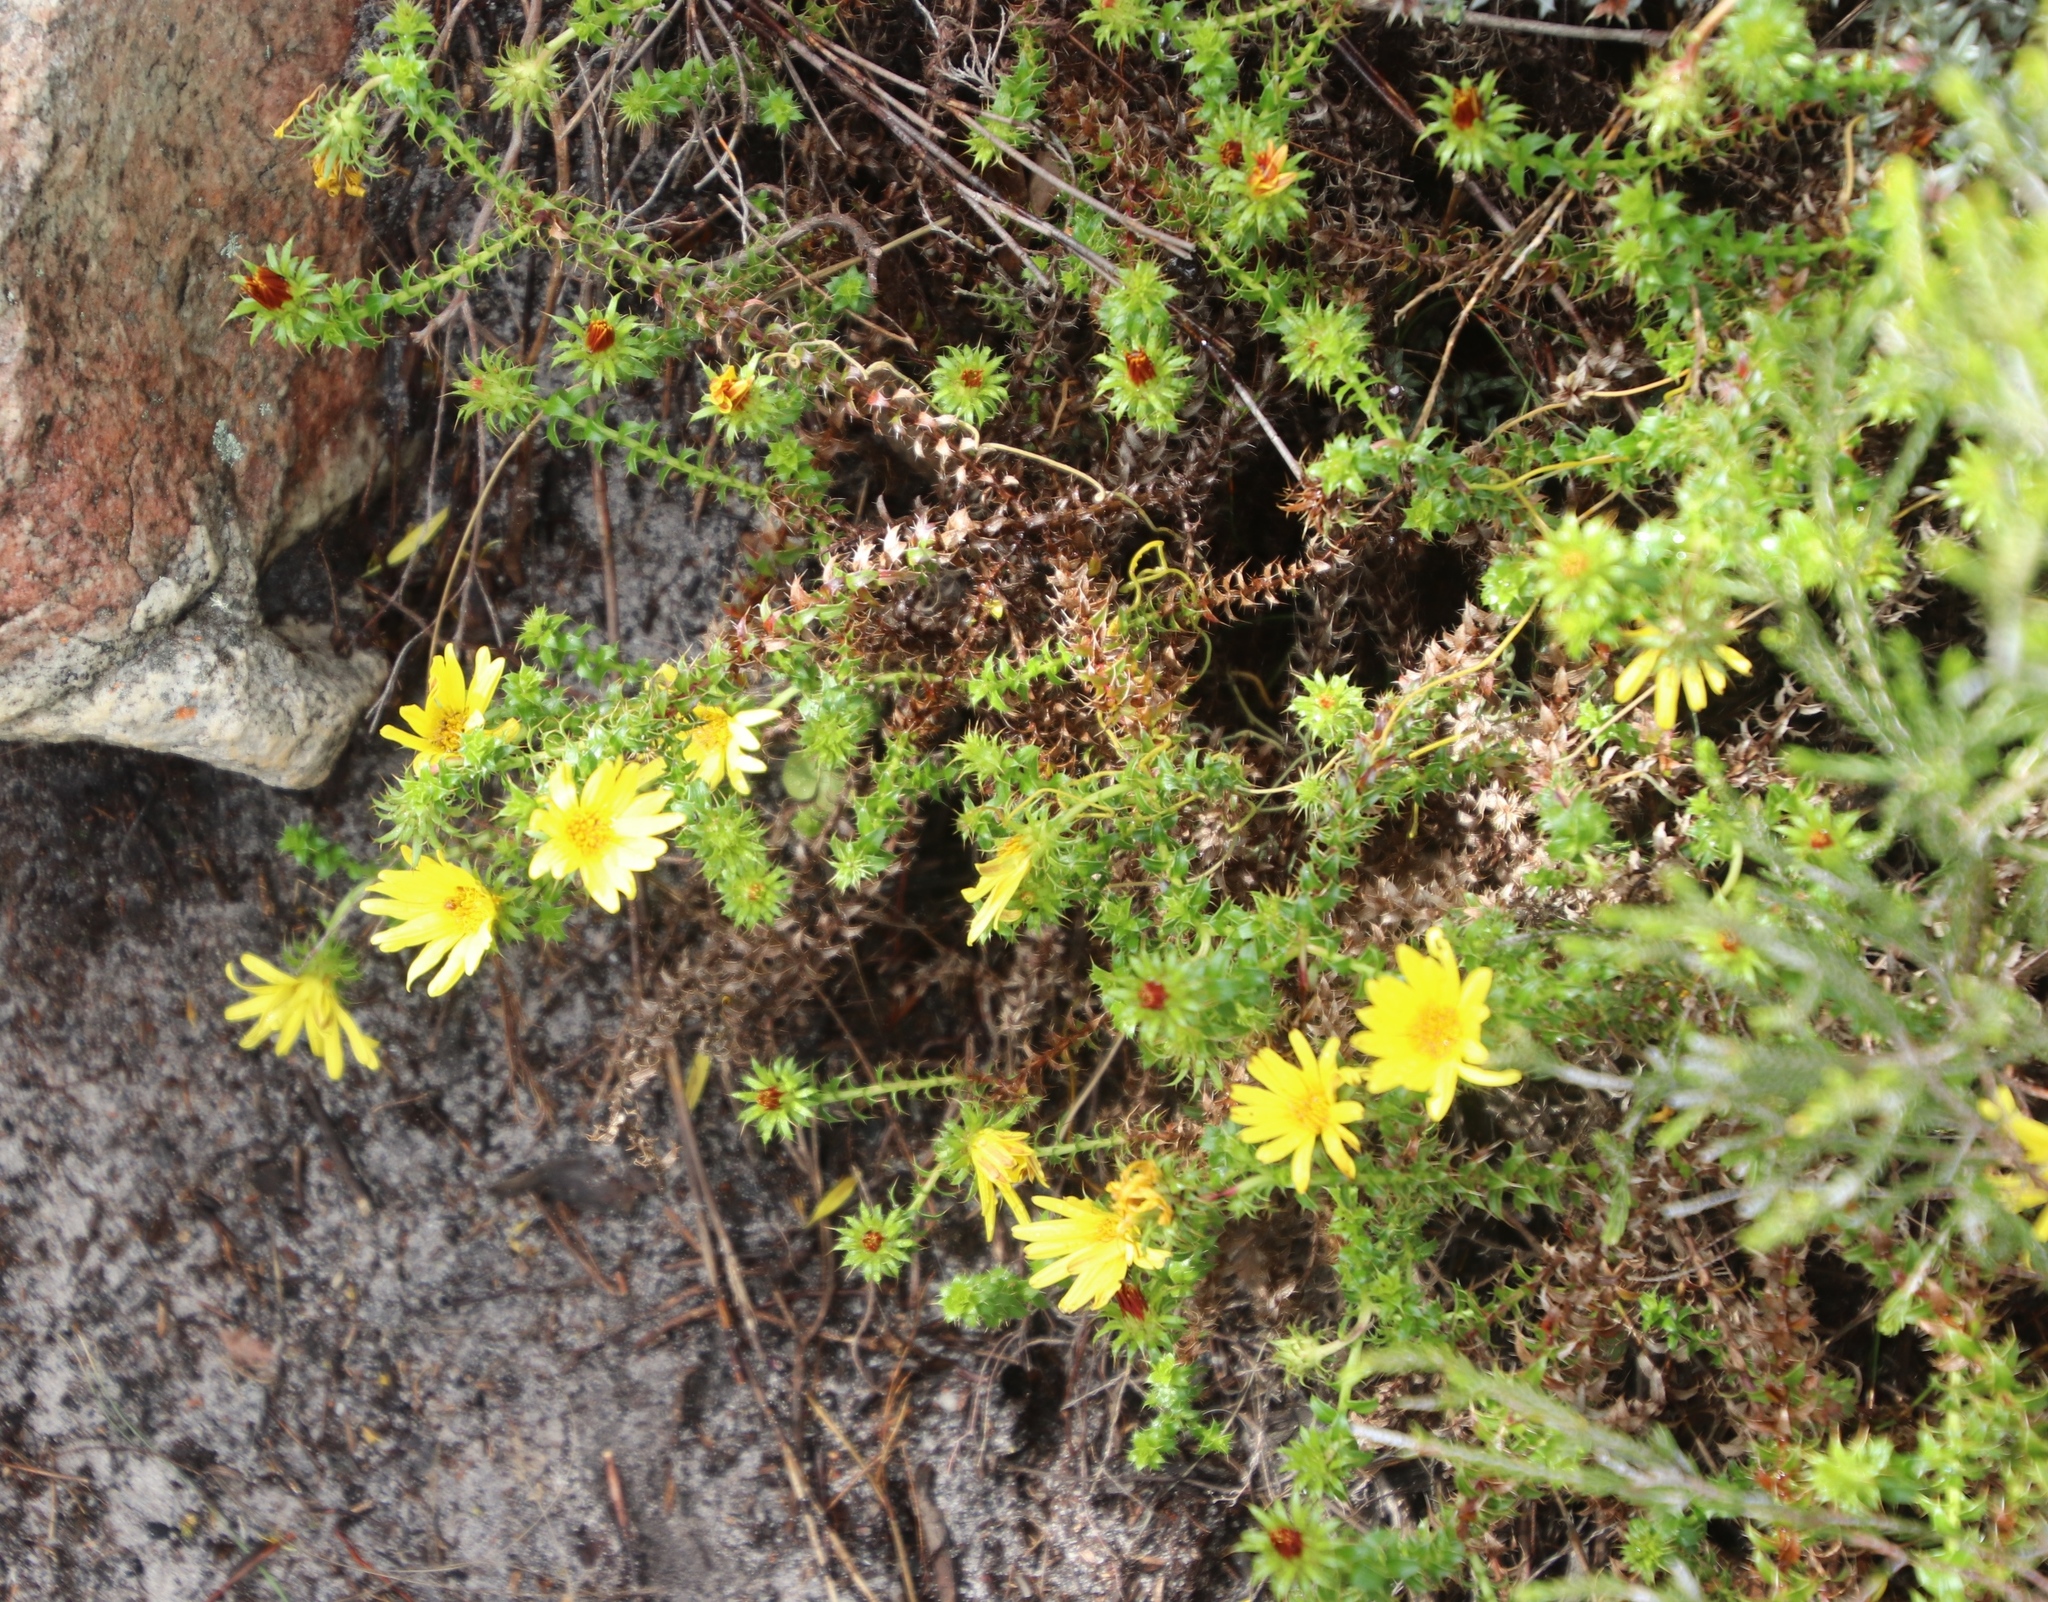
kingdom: Plantae
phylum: Tracheophyta
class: Magnoliopsida
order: Asterales
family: Asteraceae
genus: Cullumia
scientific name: Cullumia setosa
